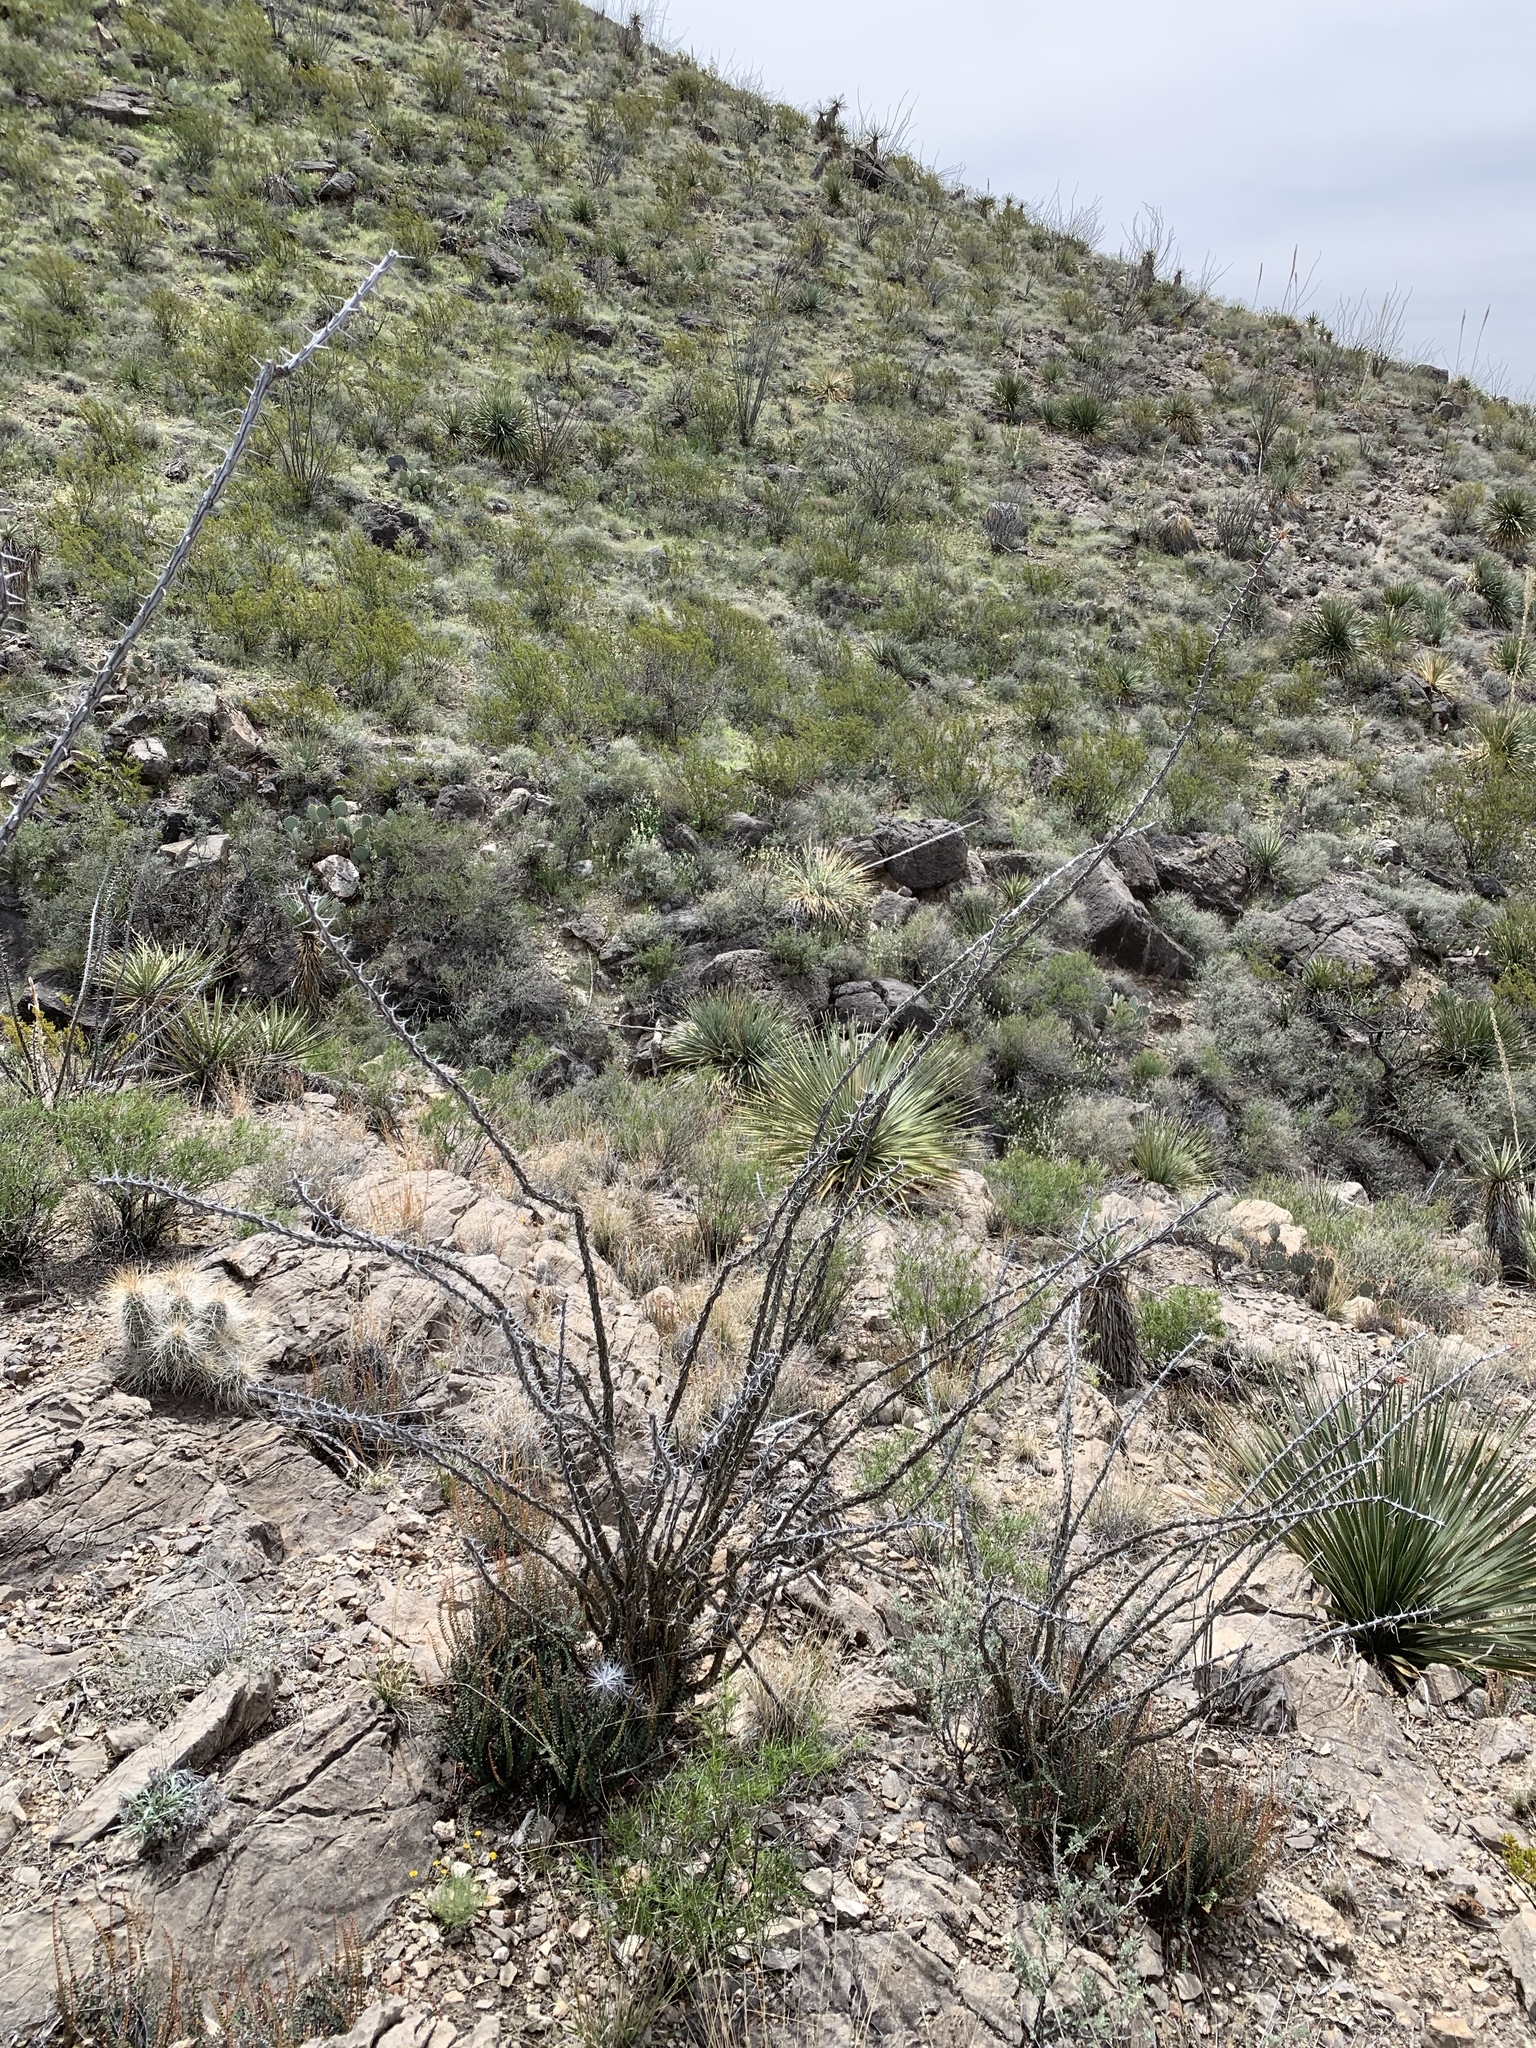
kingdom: Plantae
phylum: Tracheophyta
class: Magnoliopsida
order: Ericales
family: Fouquieriaceae
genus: Fouquieria
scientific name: Fouquieria splendens
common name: Vine-cactus
